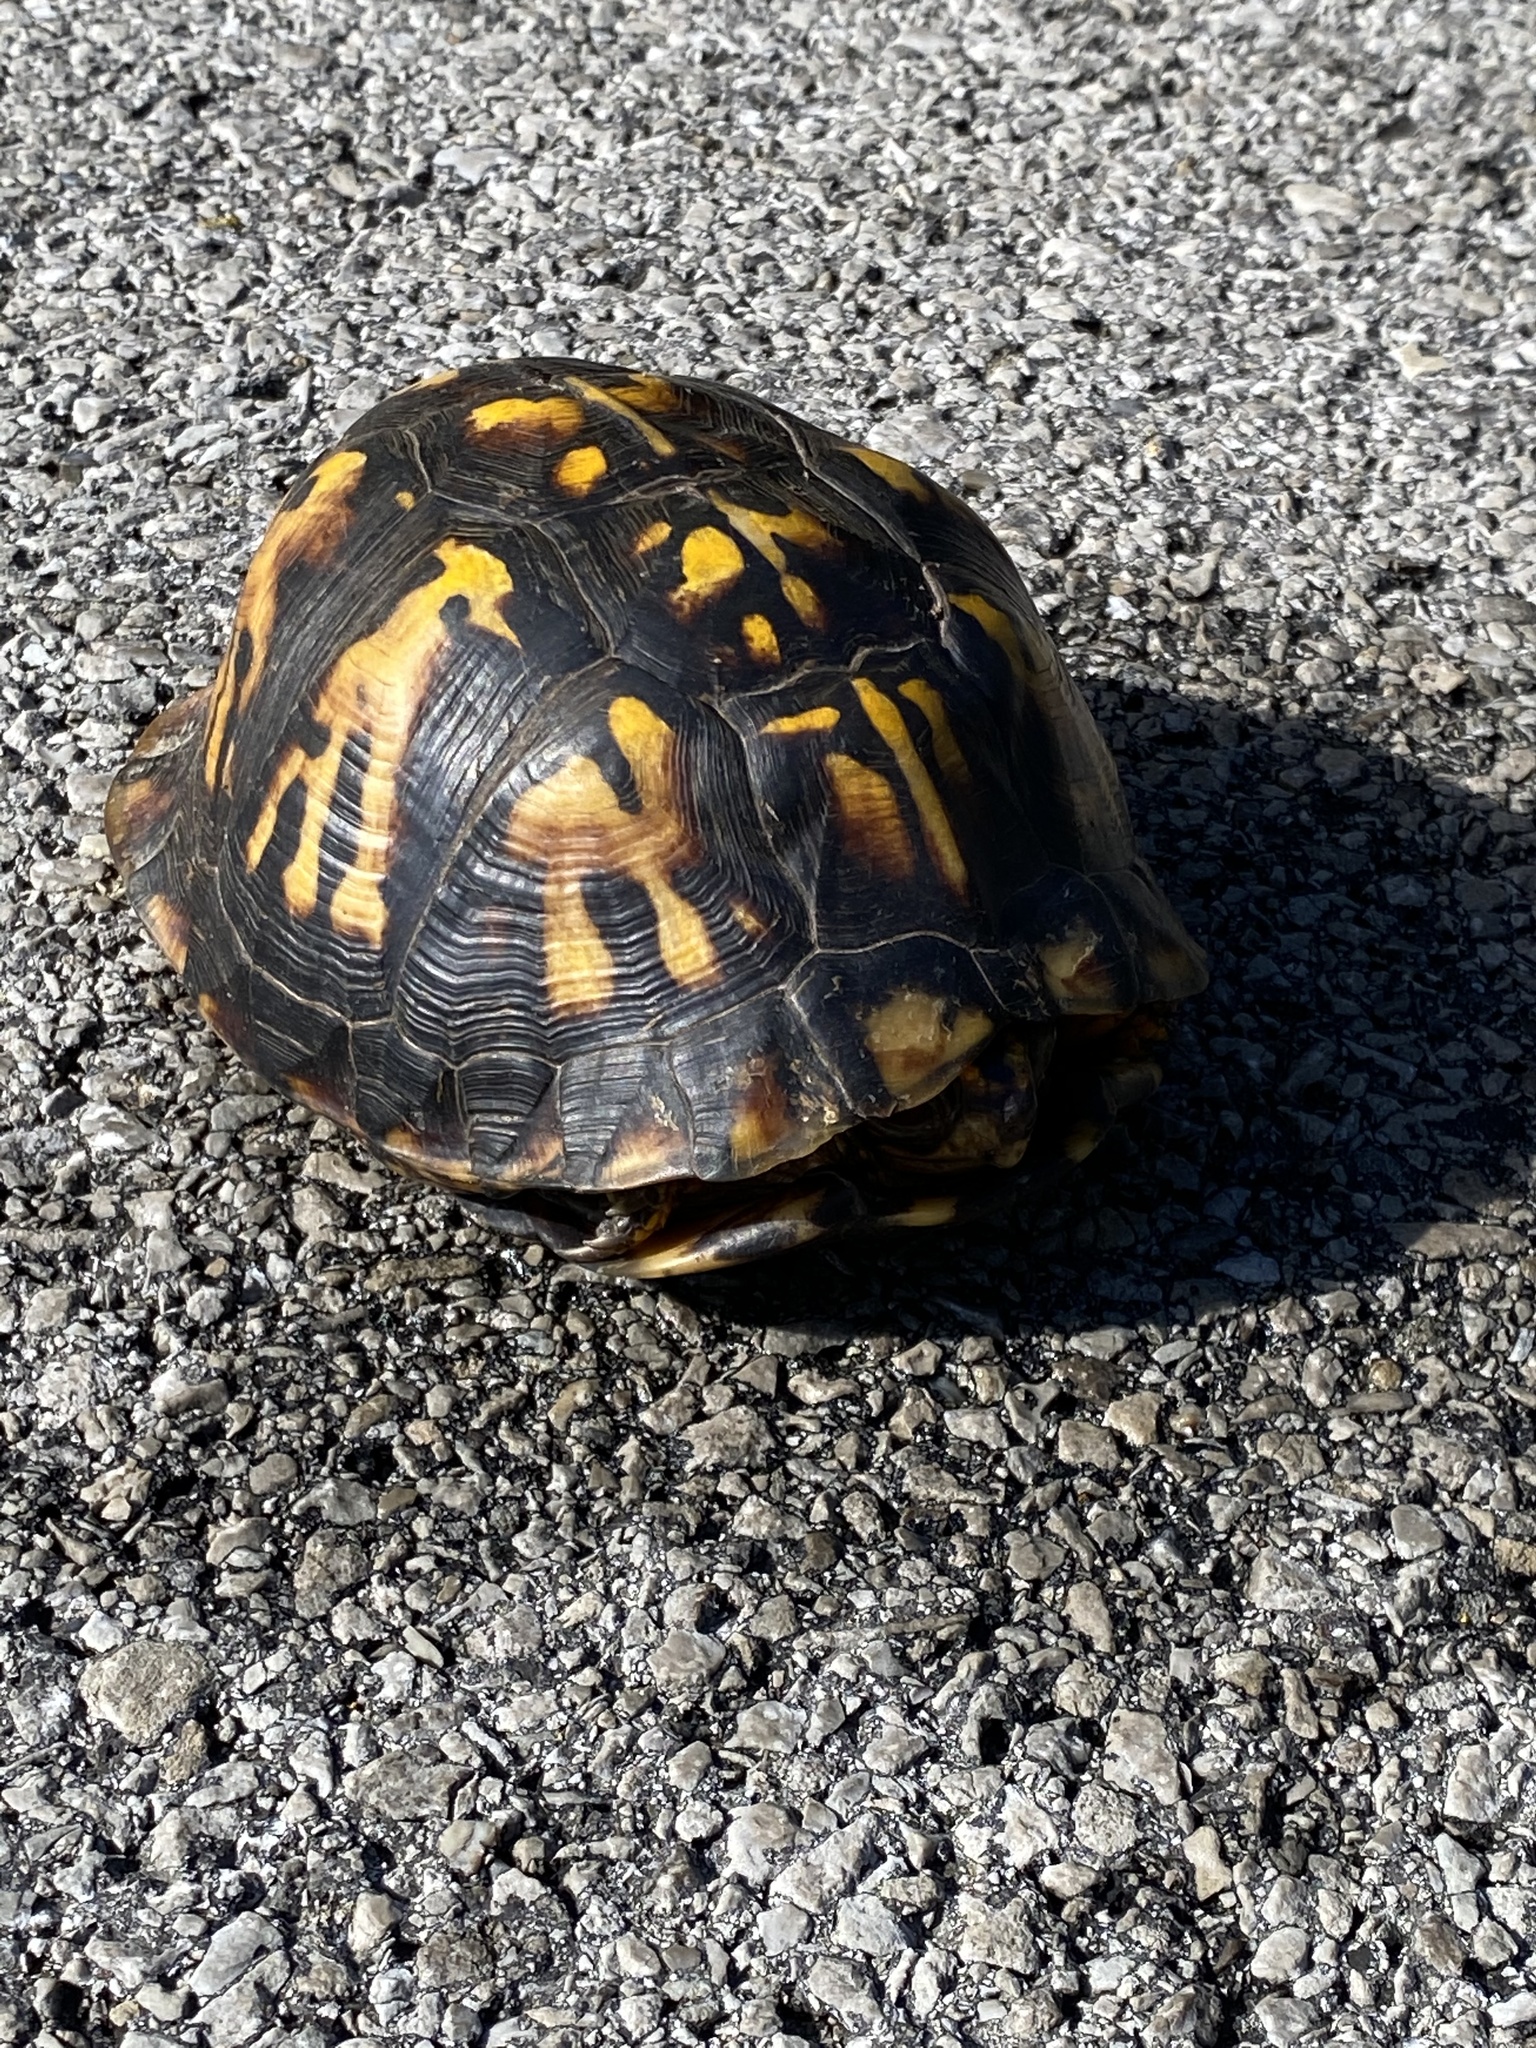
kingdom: Animalia
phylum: Chordata
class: Testudines
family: Emydidae
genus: Terrapene
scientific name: Terrapene carolina
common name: Common box turtle
